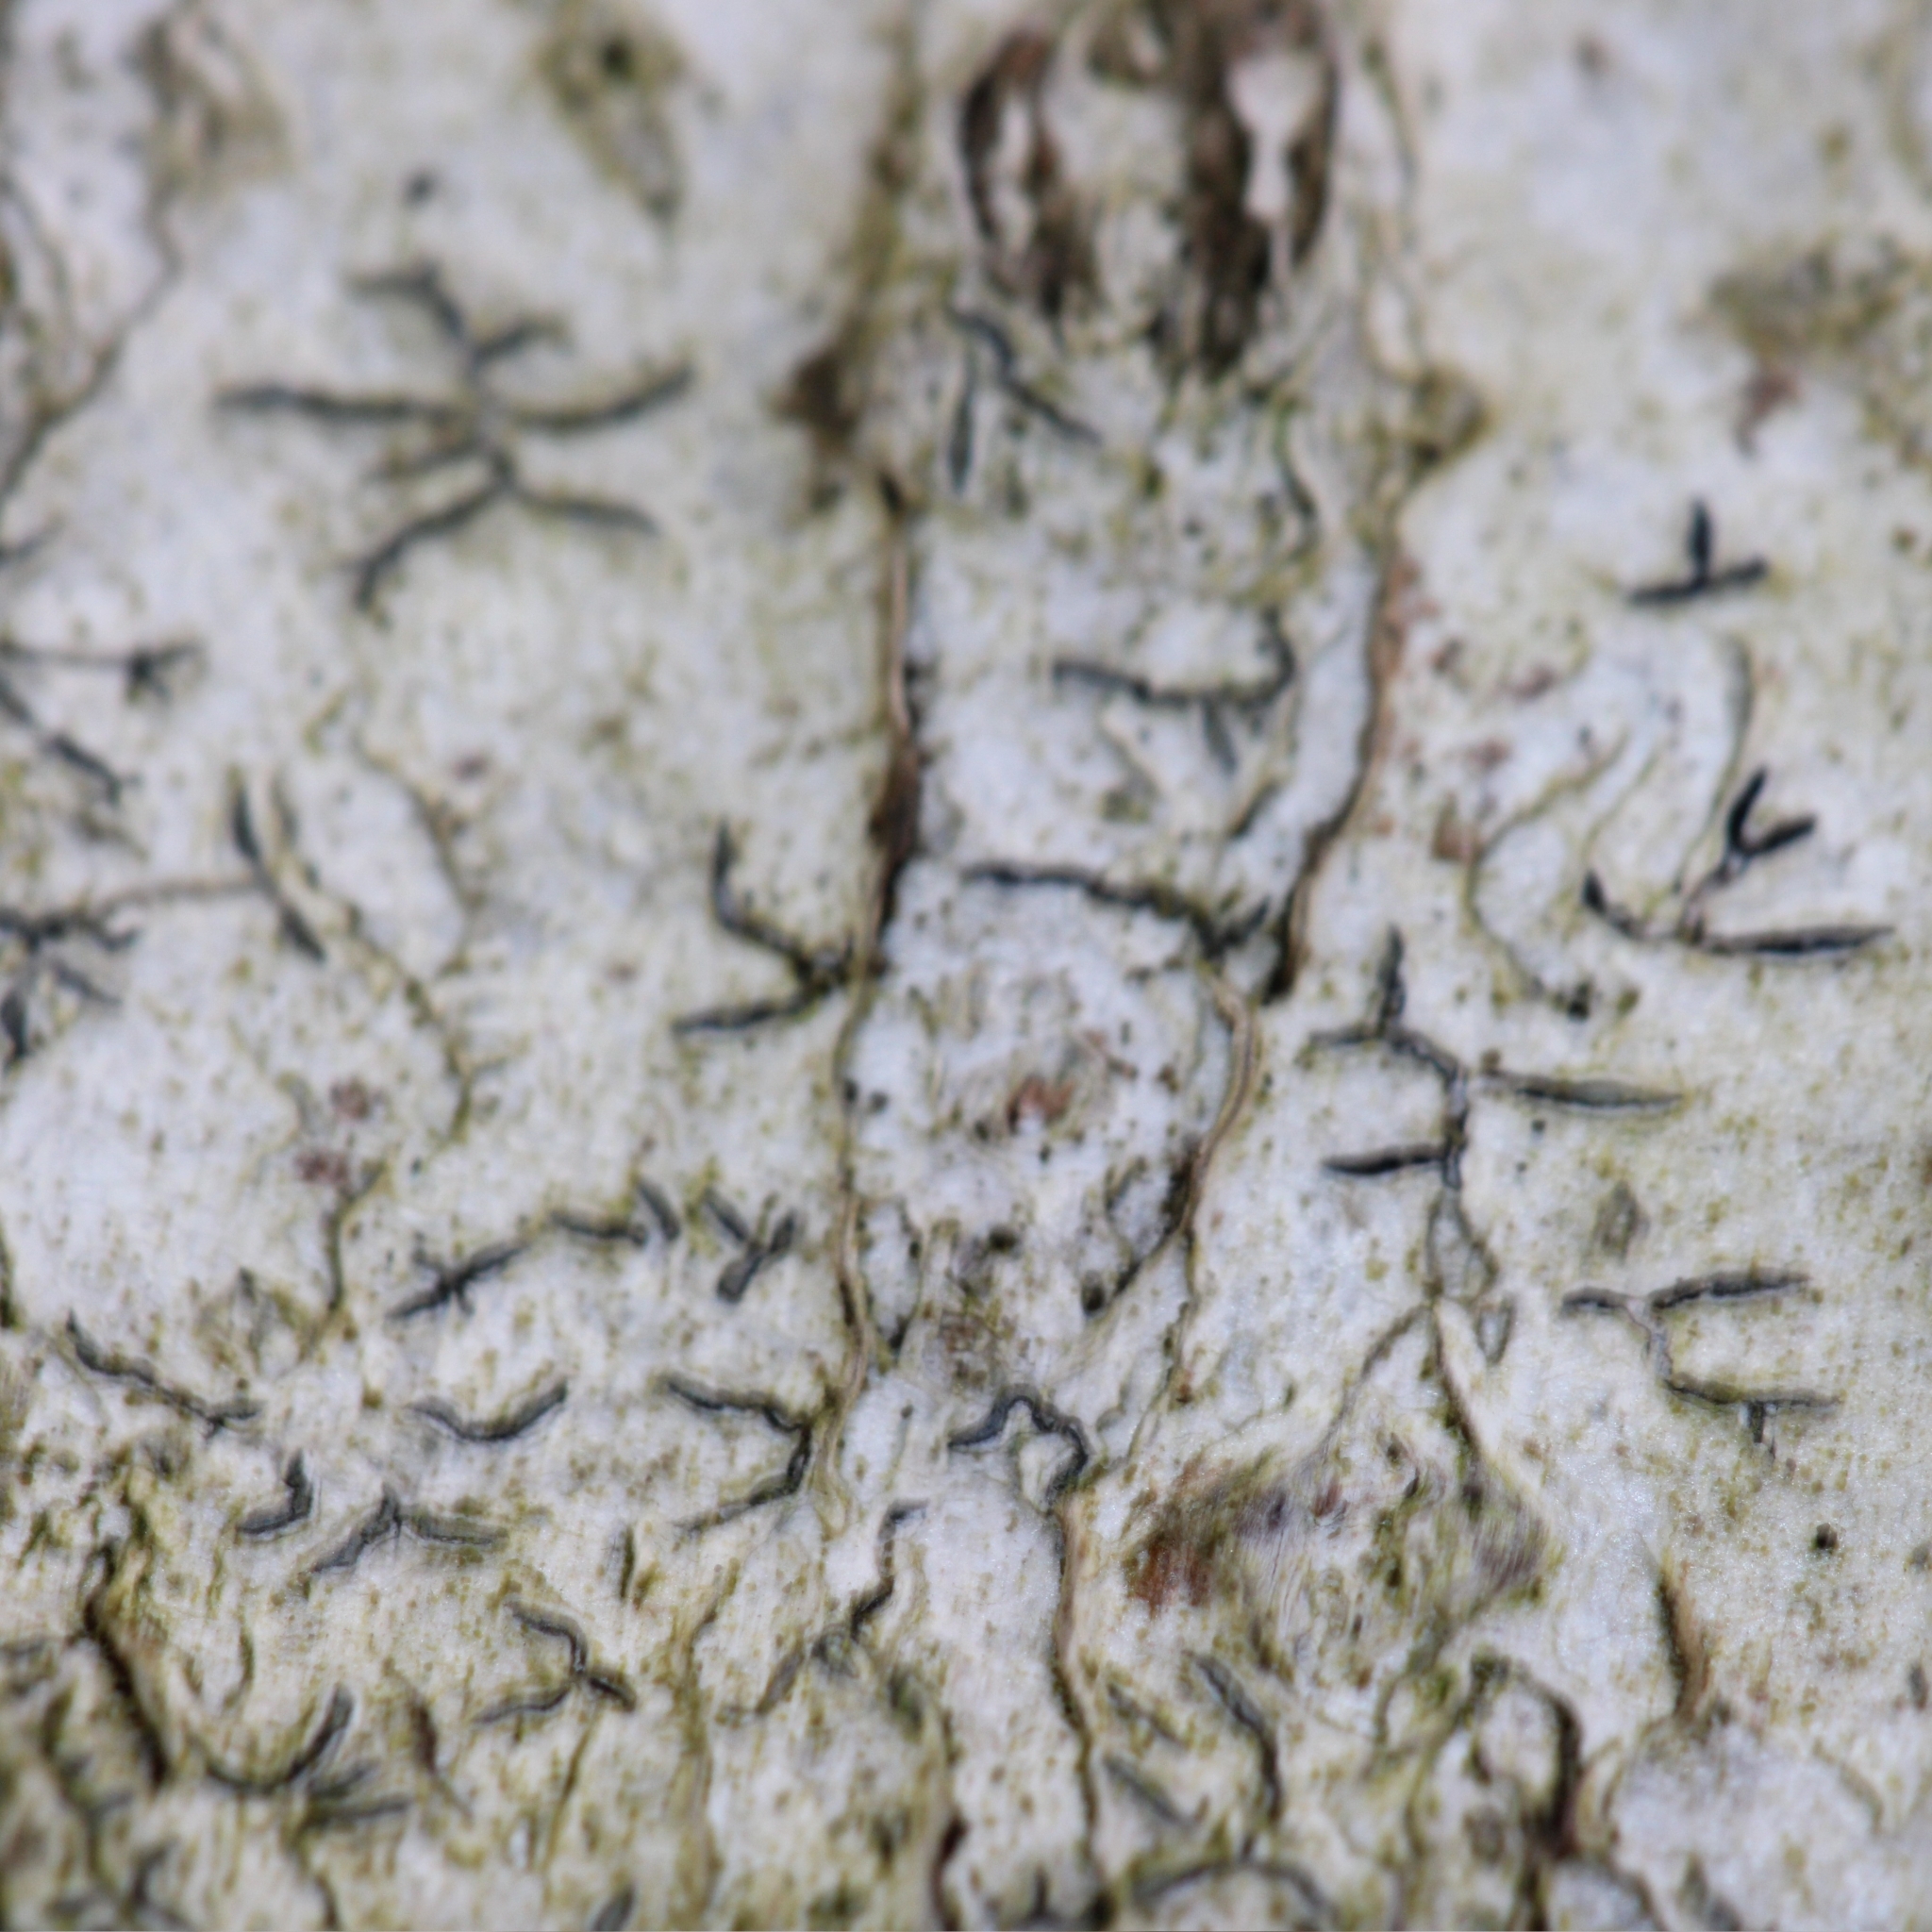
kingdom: Fungi
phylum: Ascomycota
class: Lecanoromycetes
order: Ostropales
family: Graphidaceae
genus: Graphis
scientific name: Graphis scripta
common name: Script lichen
